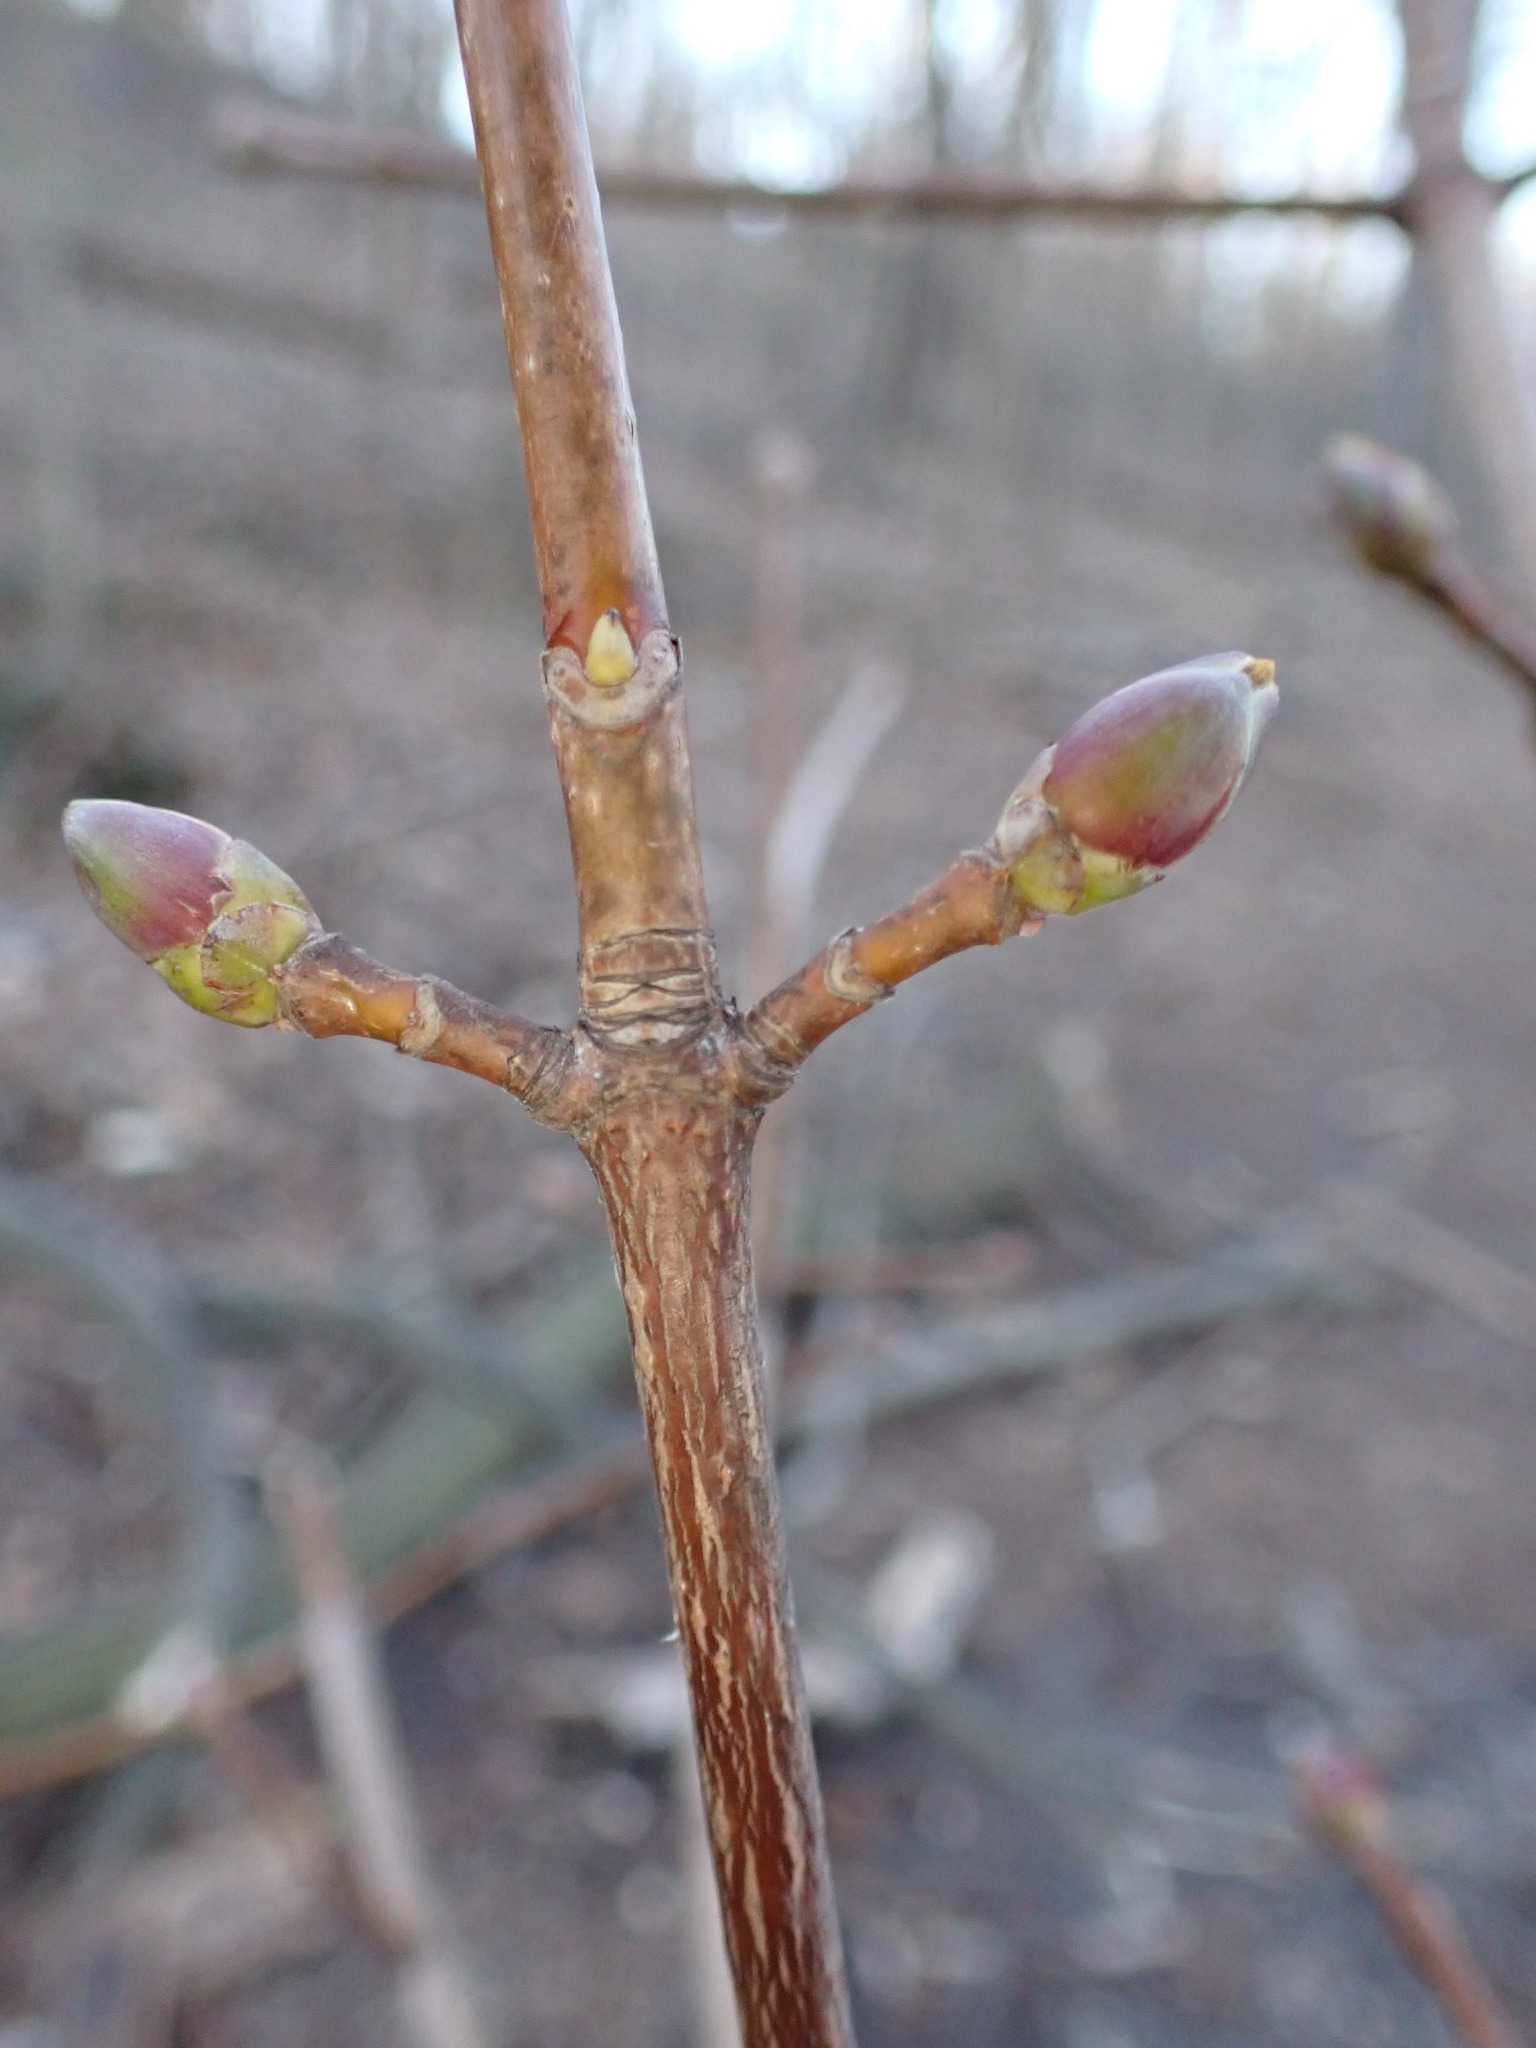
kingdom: Plantae
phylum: Tracheophyta
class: Magnoliopsida
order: Sapindales
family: Sapindaceae
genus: Acer
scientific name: Acer platanoides
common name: Norway maple
